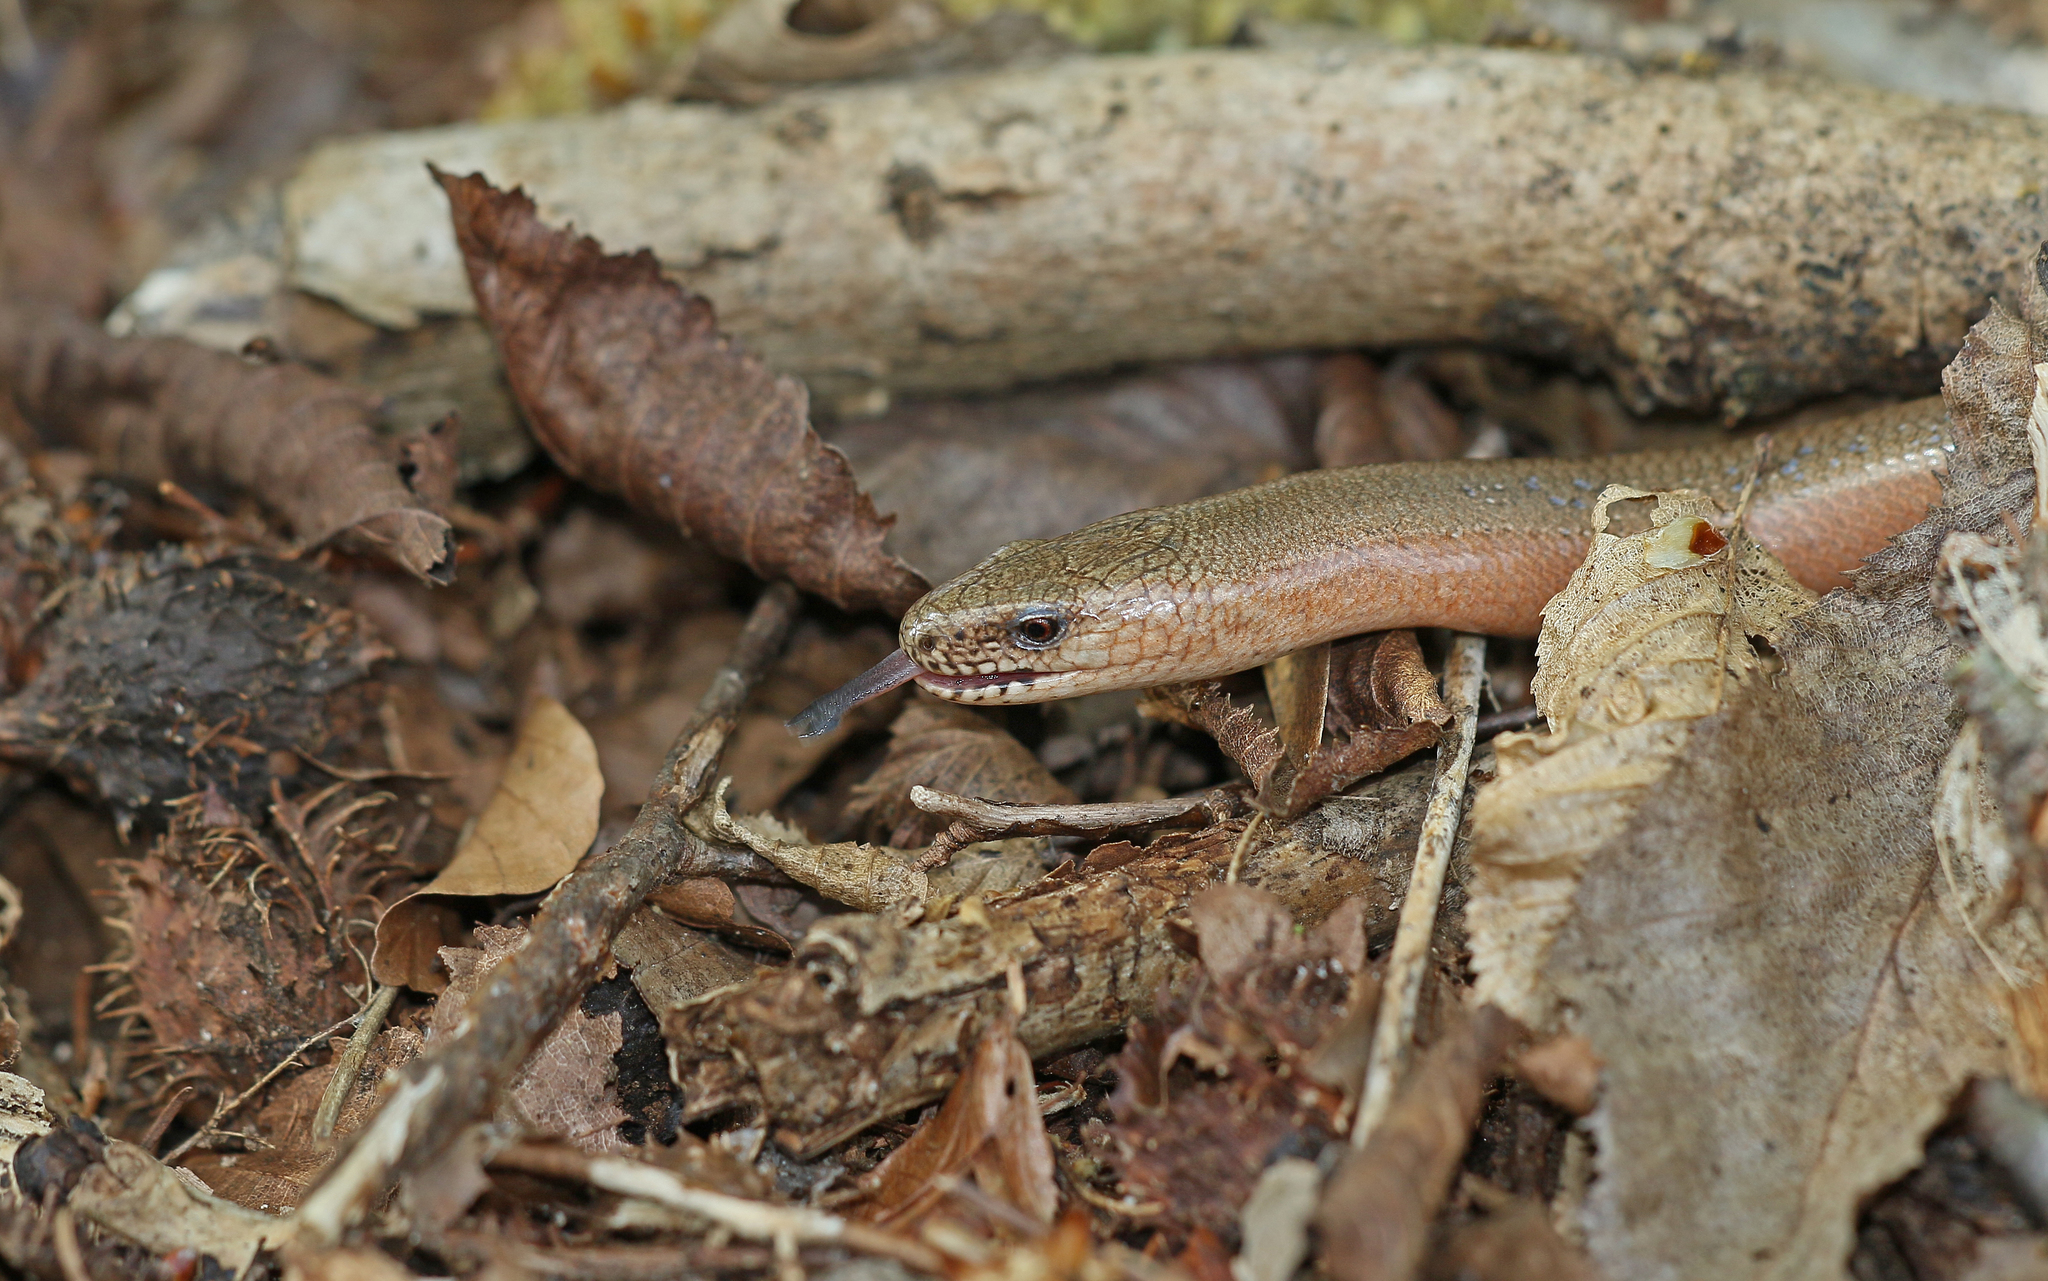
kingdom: Animalia
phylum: Chordata
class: Squamata
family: Anguidae
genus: Anguis
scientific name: Anguis fragilis
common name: Slow worm
